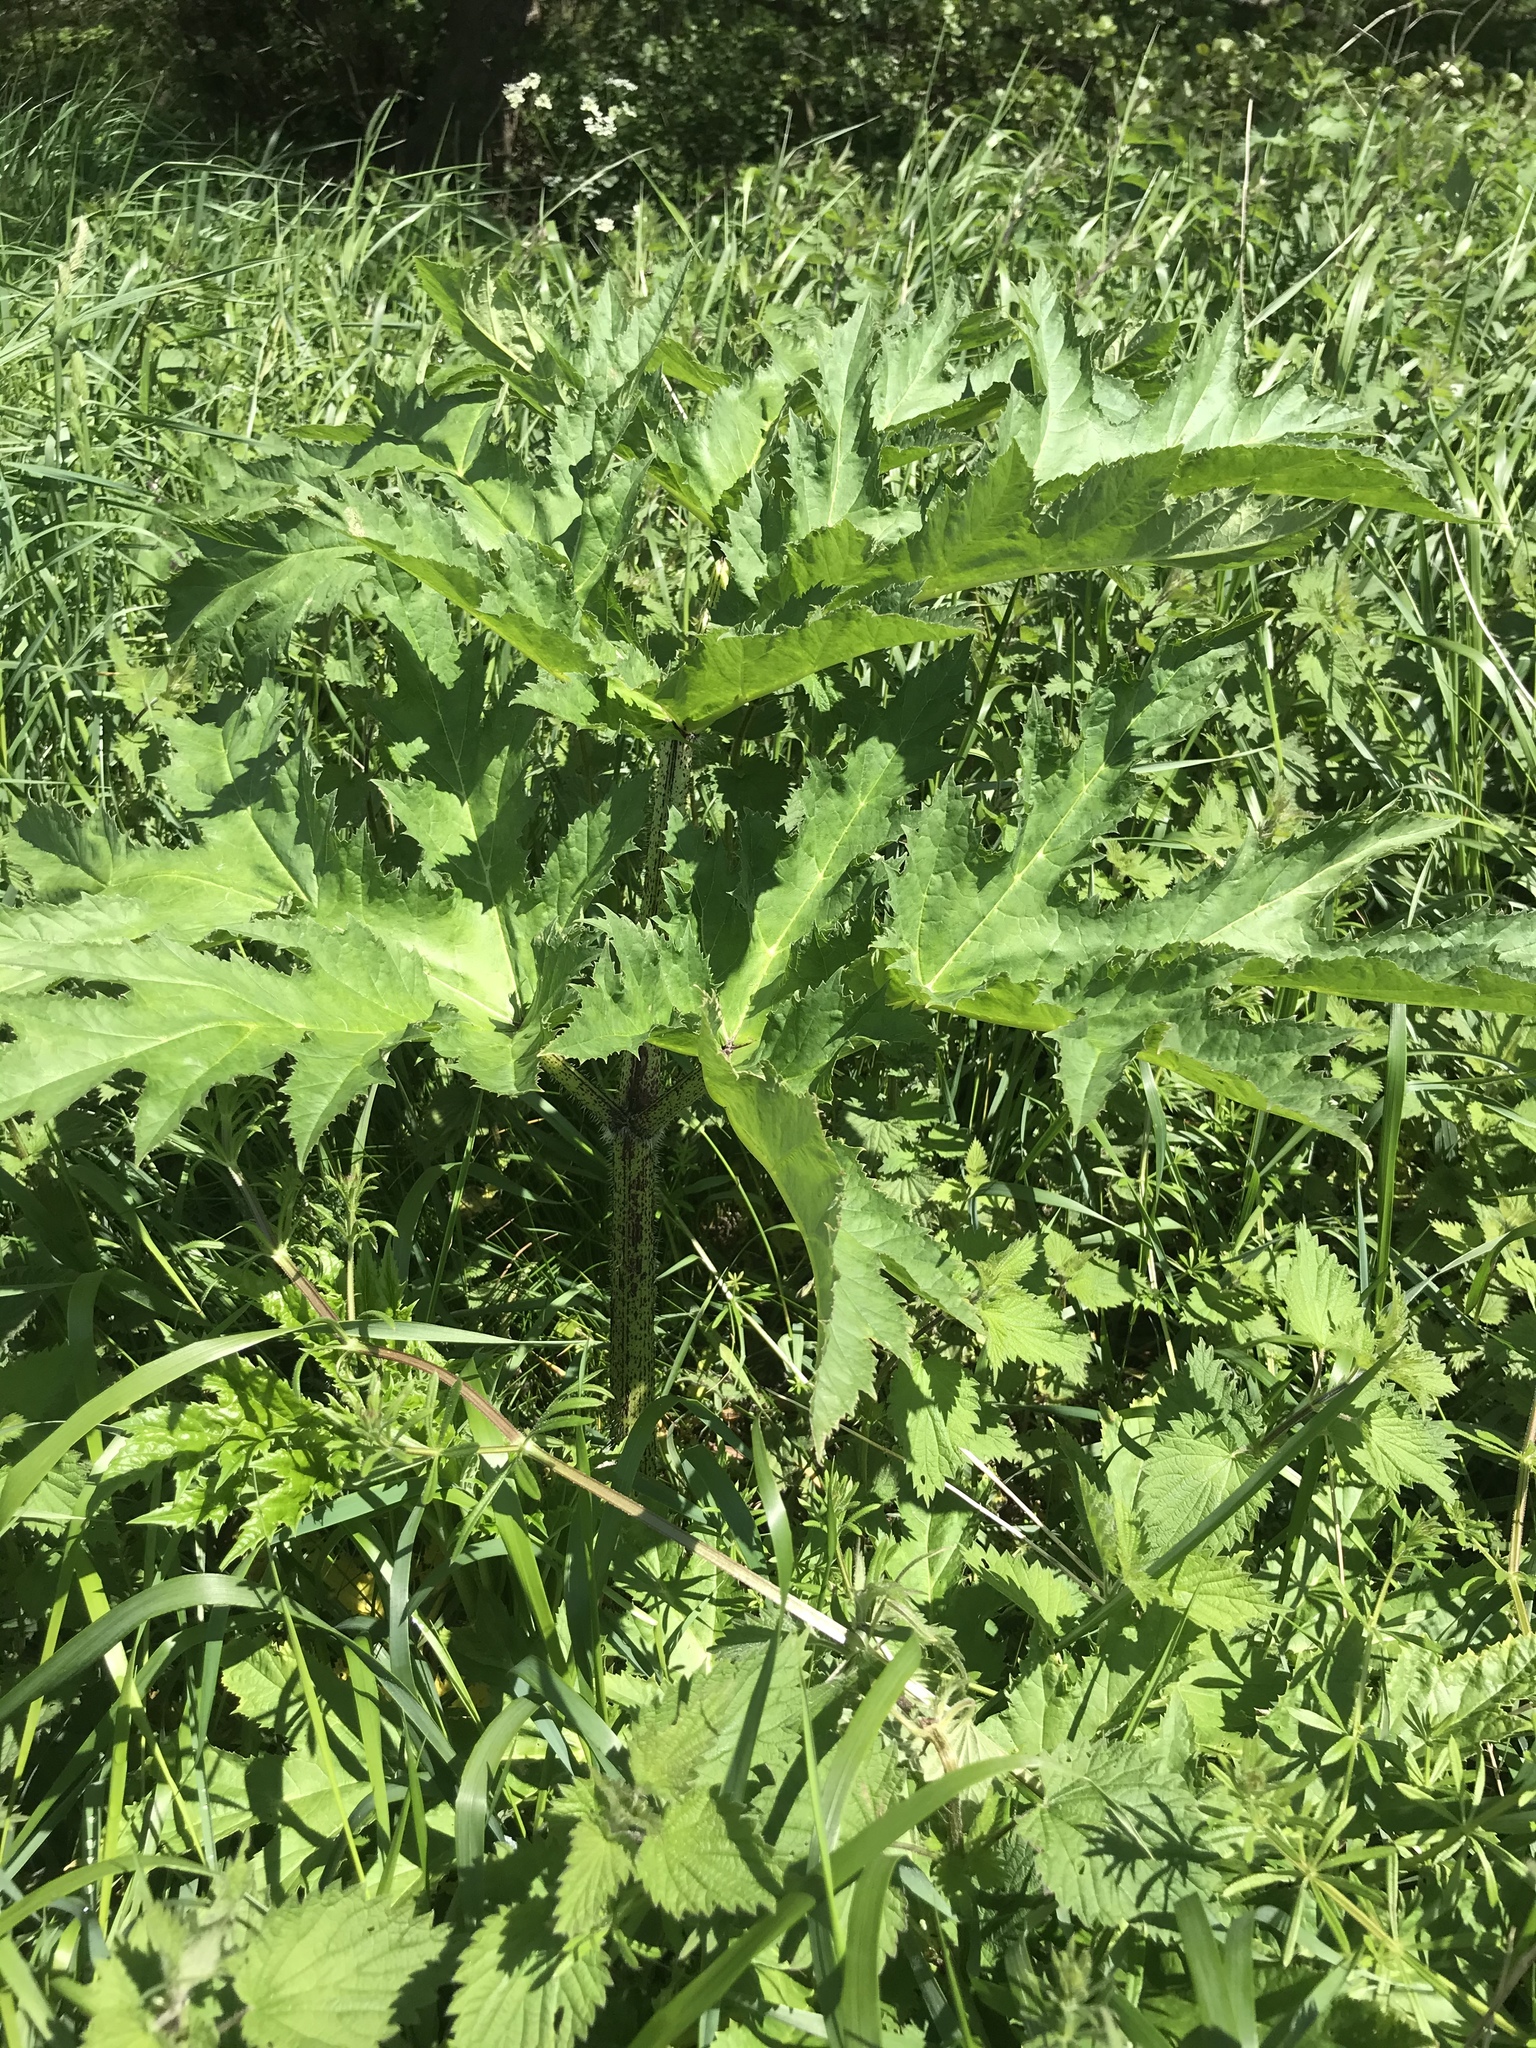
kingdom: Plantae
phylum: Tracheophyta
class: Magnoliopsida
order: Apiales
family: Apiaceae
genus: Heracleum
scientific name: Heracleum mantegazzianum
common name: Giant hogweed
